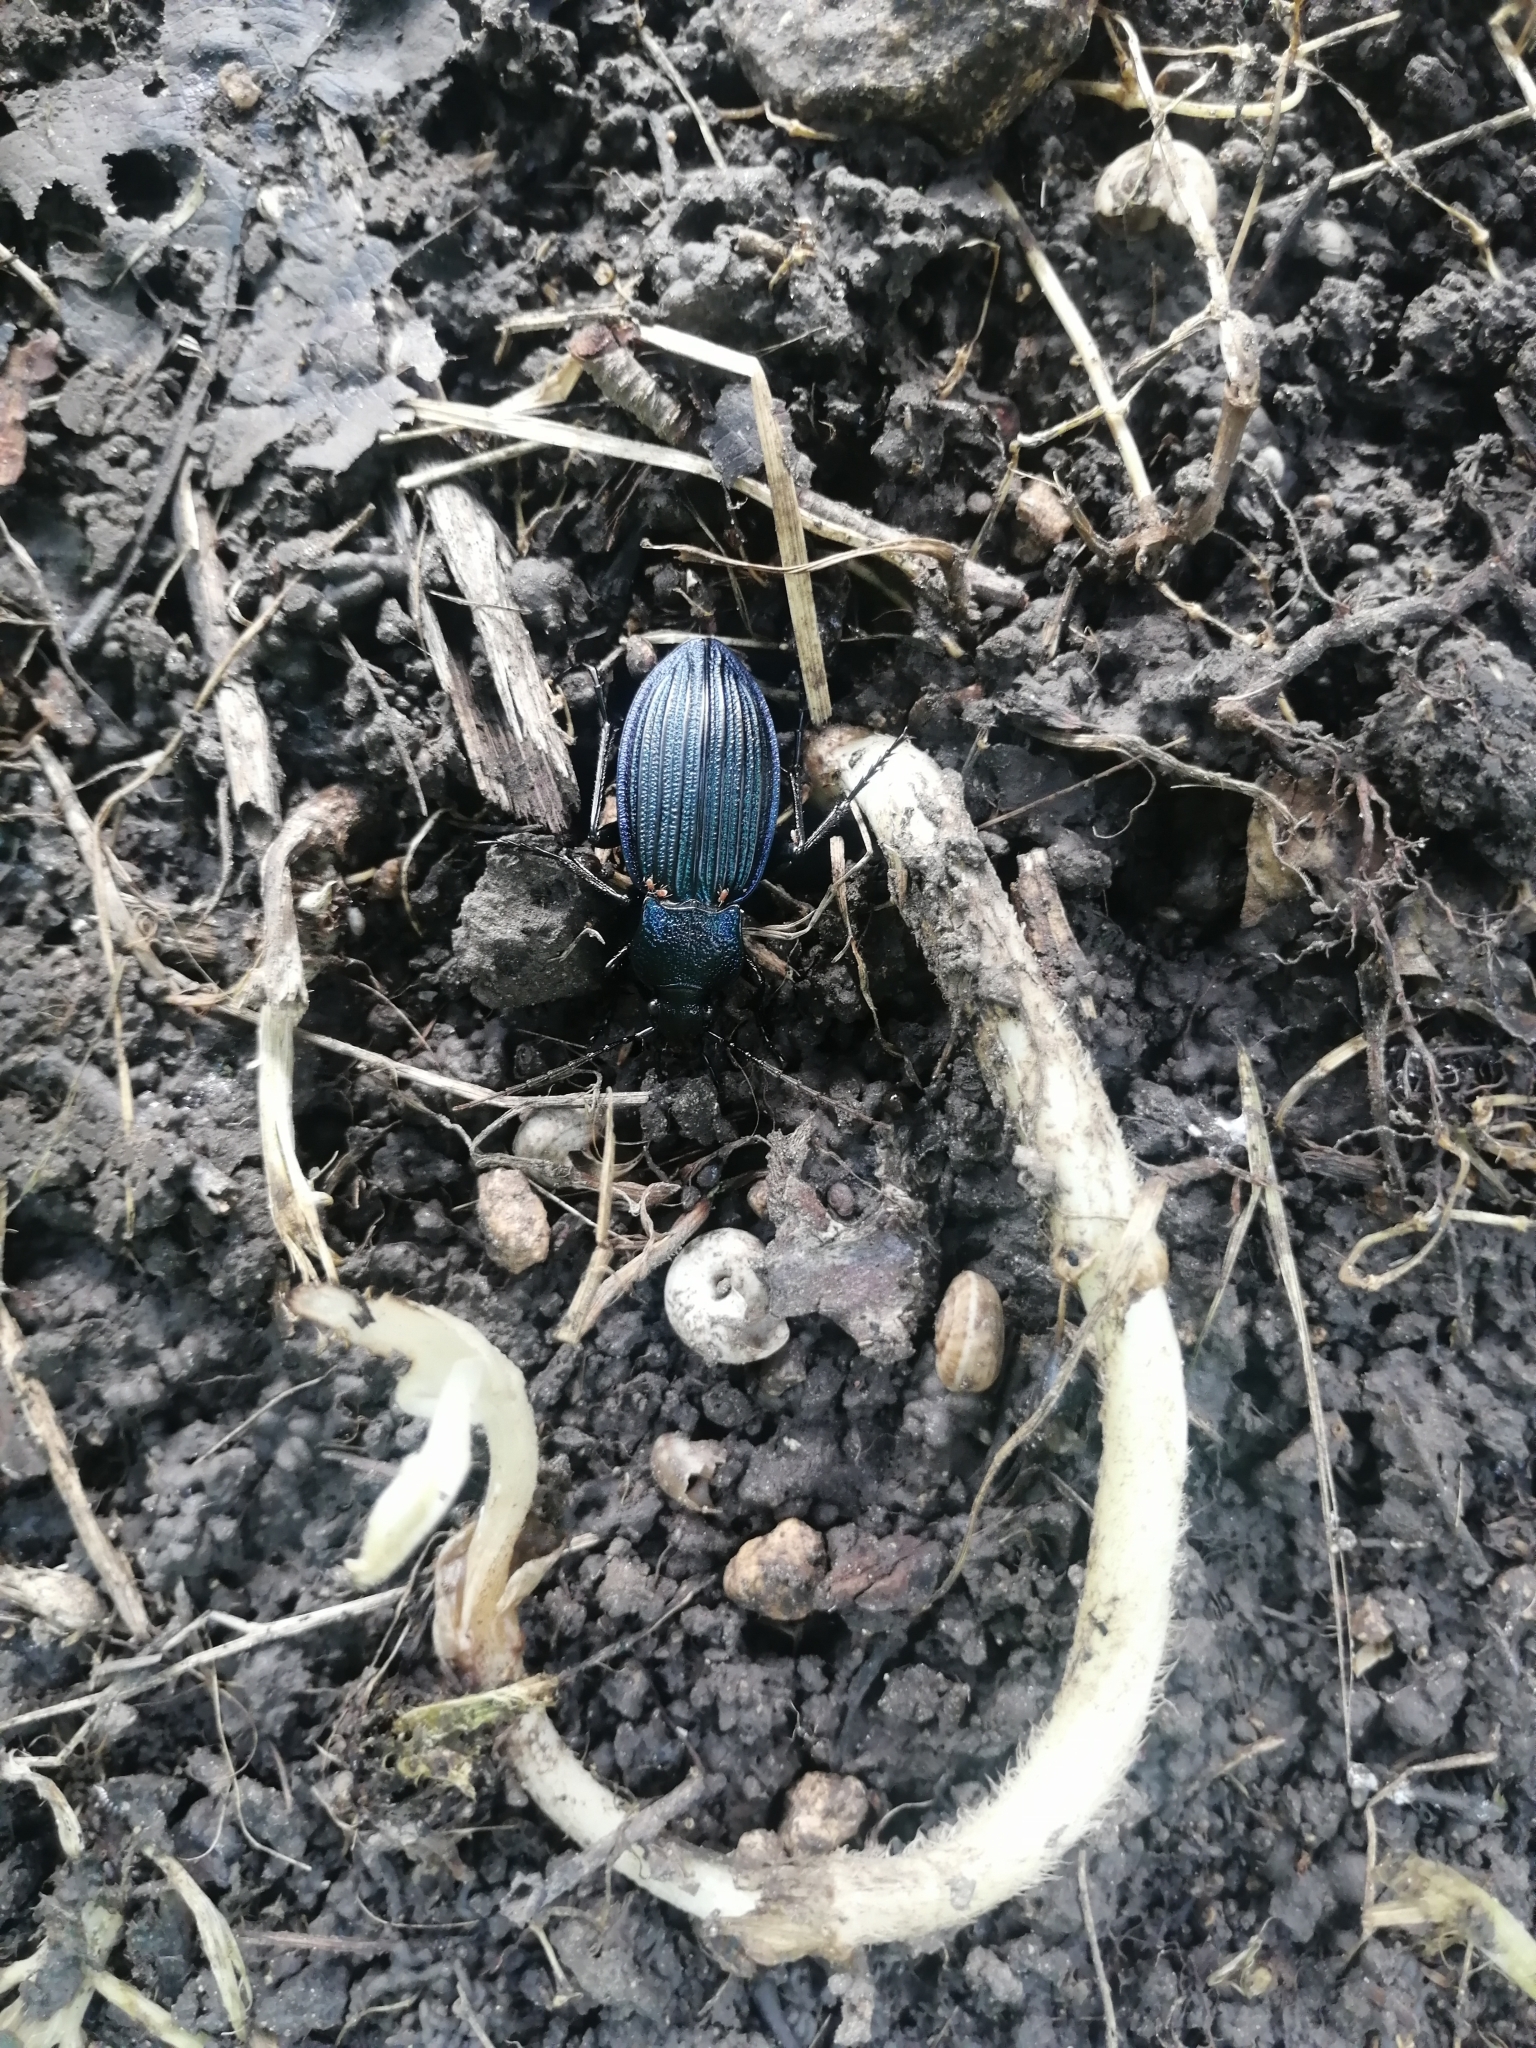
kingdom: Animalia
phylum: Arthropoda
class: Insecta
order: Coleoptera
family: Carabidae
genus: Carabus
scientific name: Carabus exaratus
